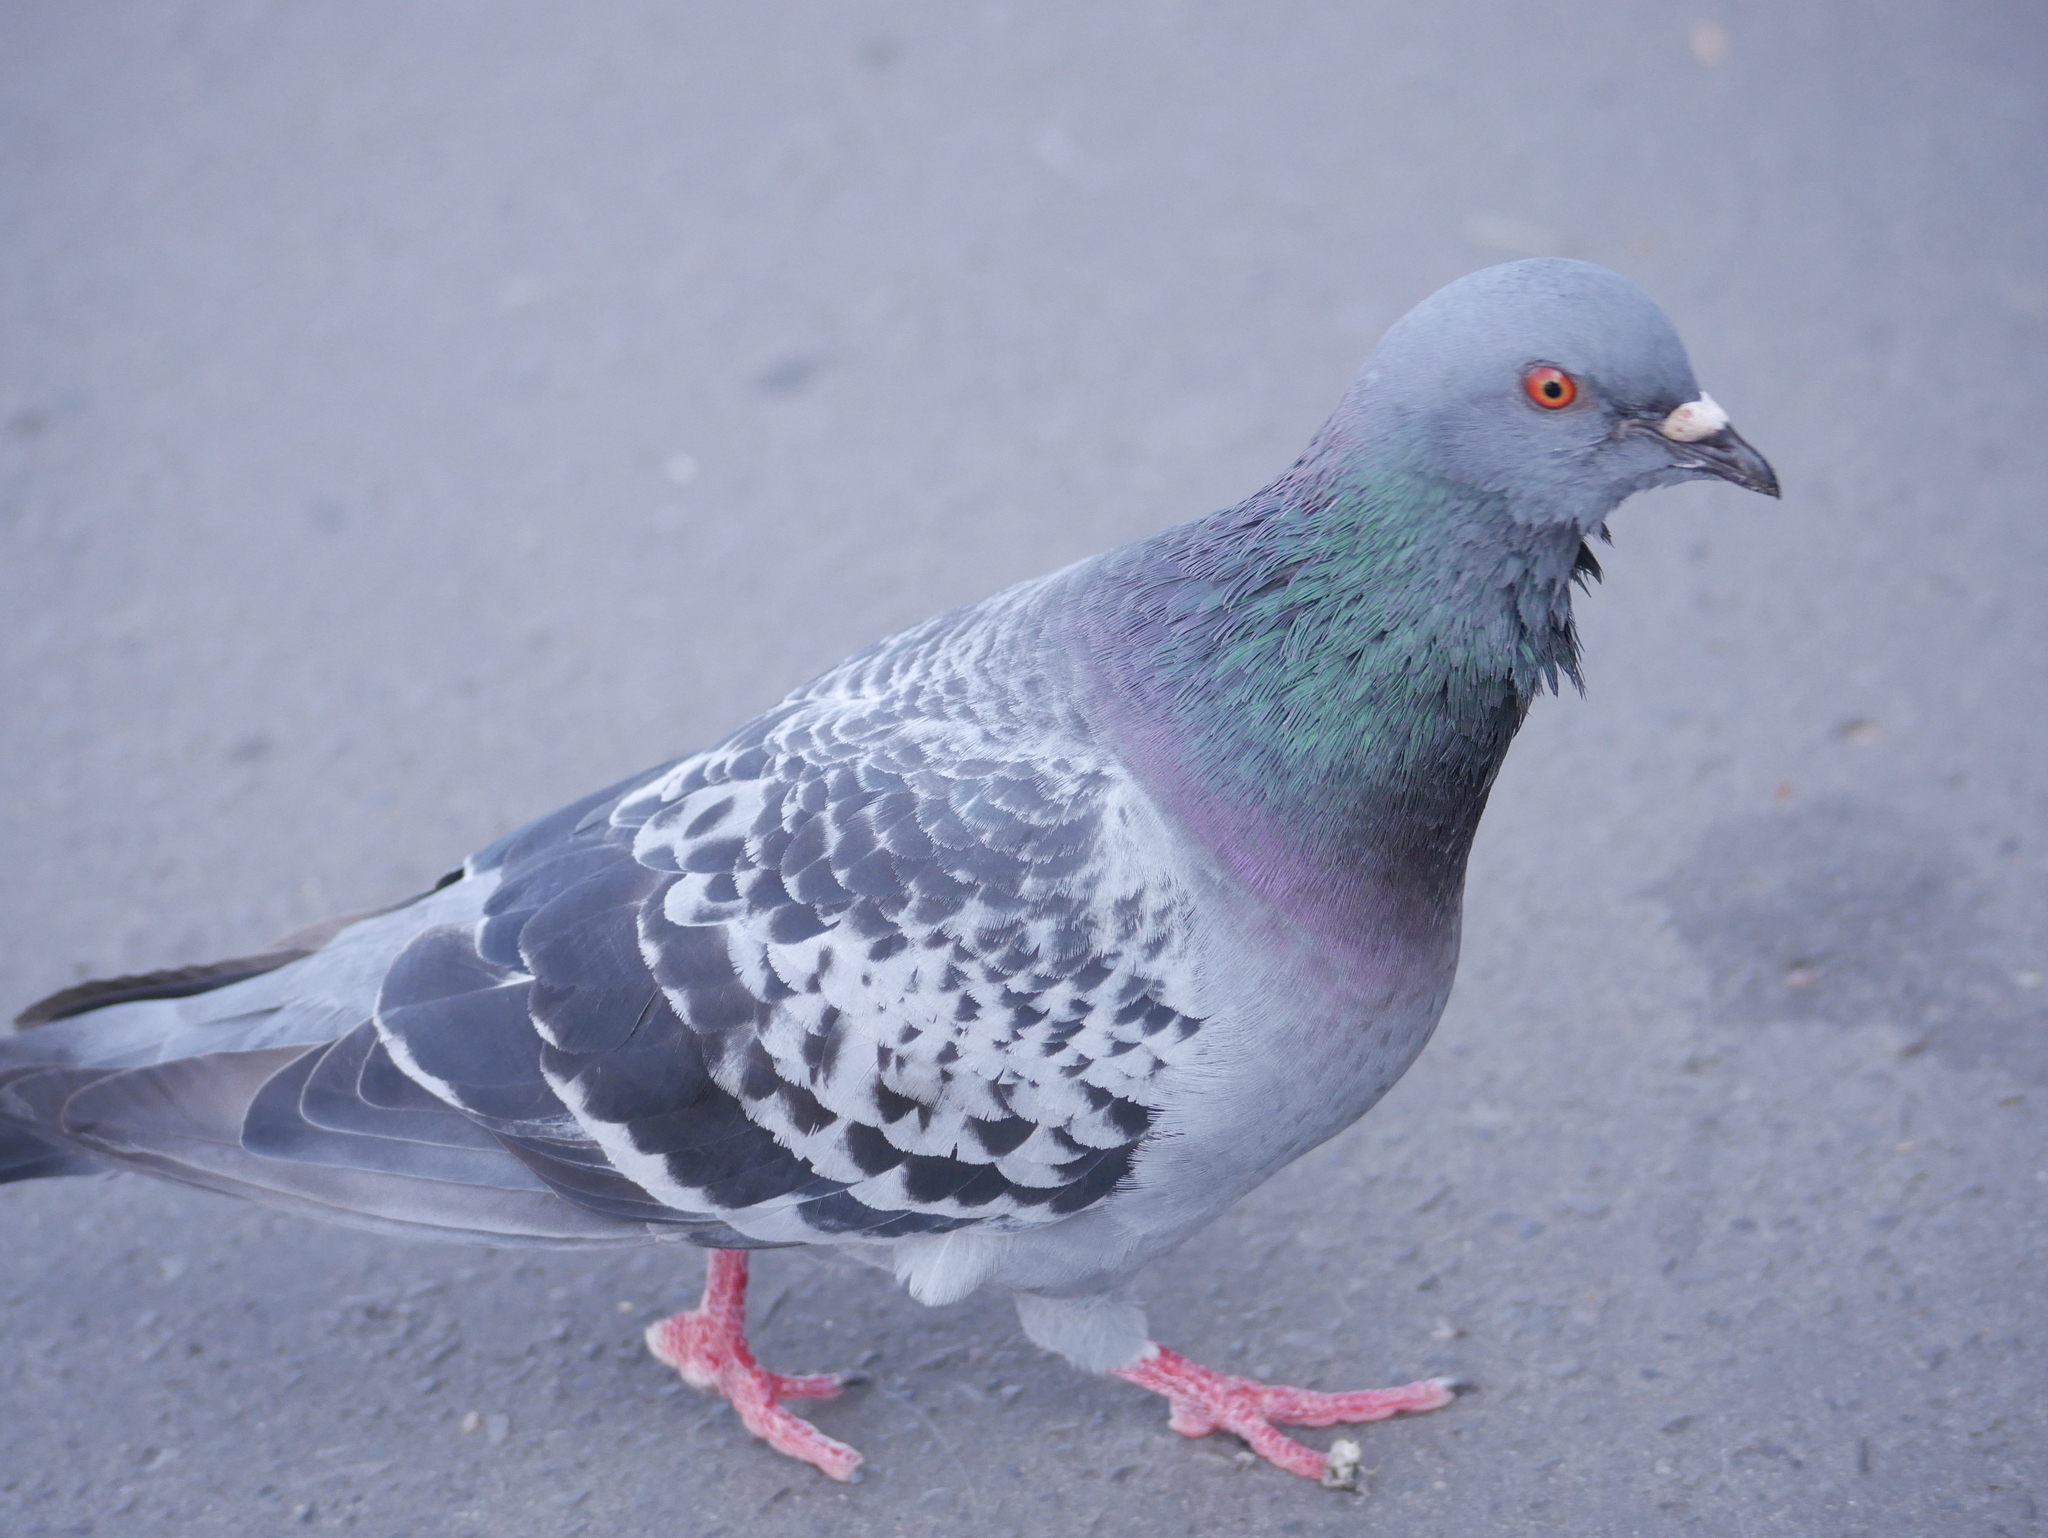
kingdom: Animalia
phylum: Chordata
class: Aves
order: Columbiformes
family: Columbidae
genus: Columba
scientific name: Columba livia
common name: Rock pigeon
